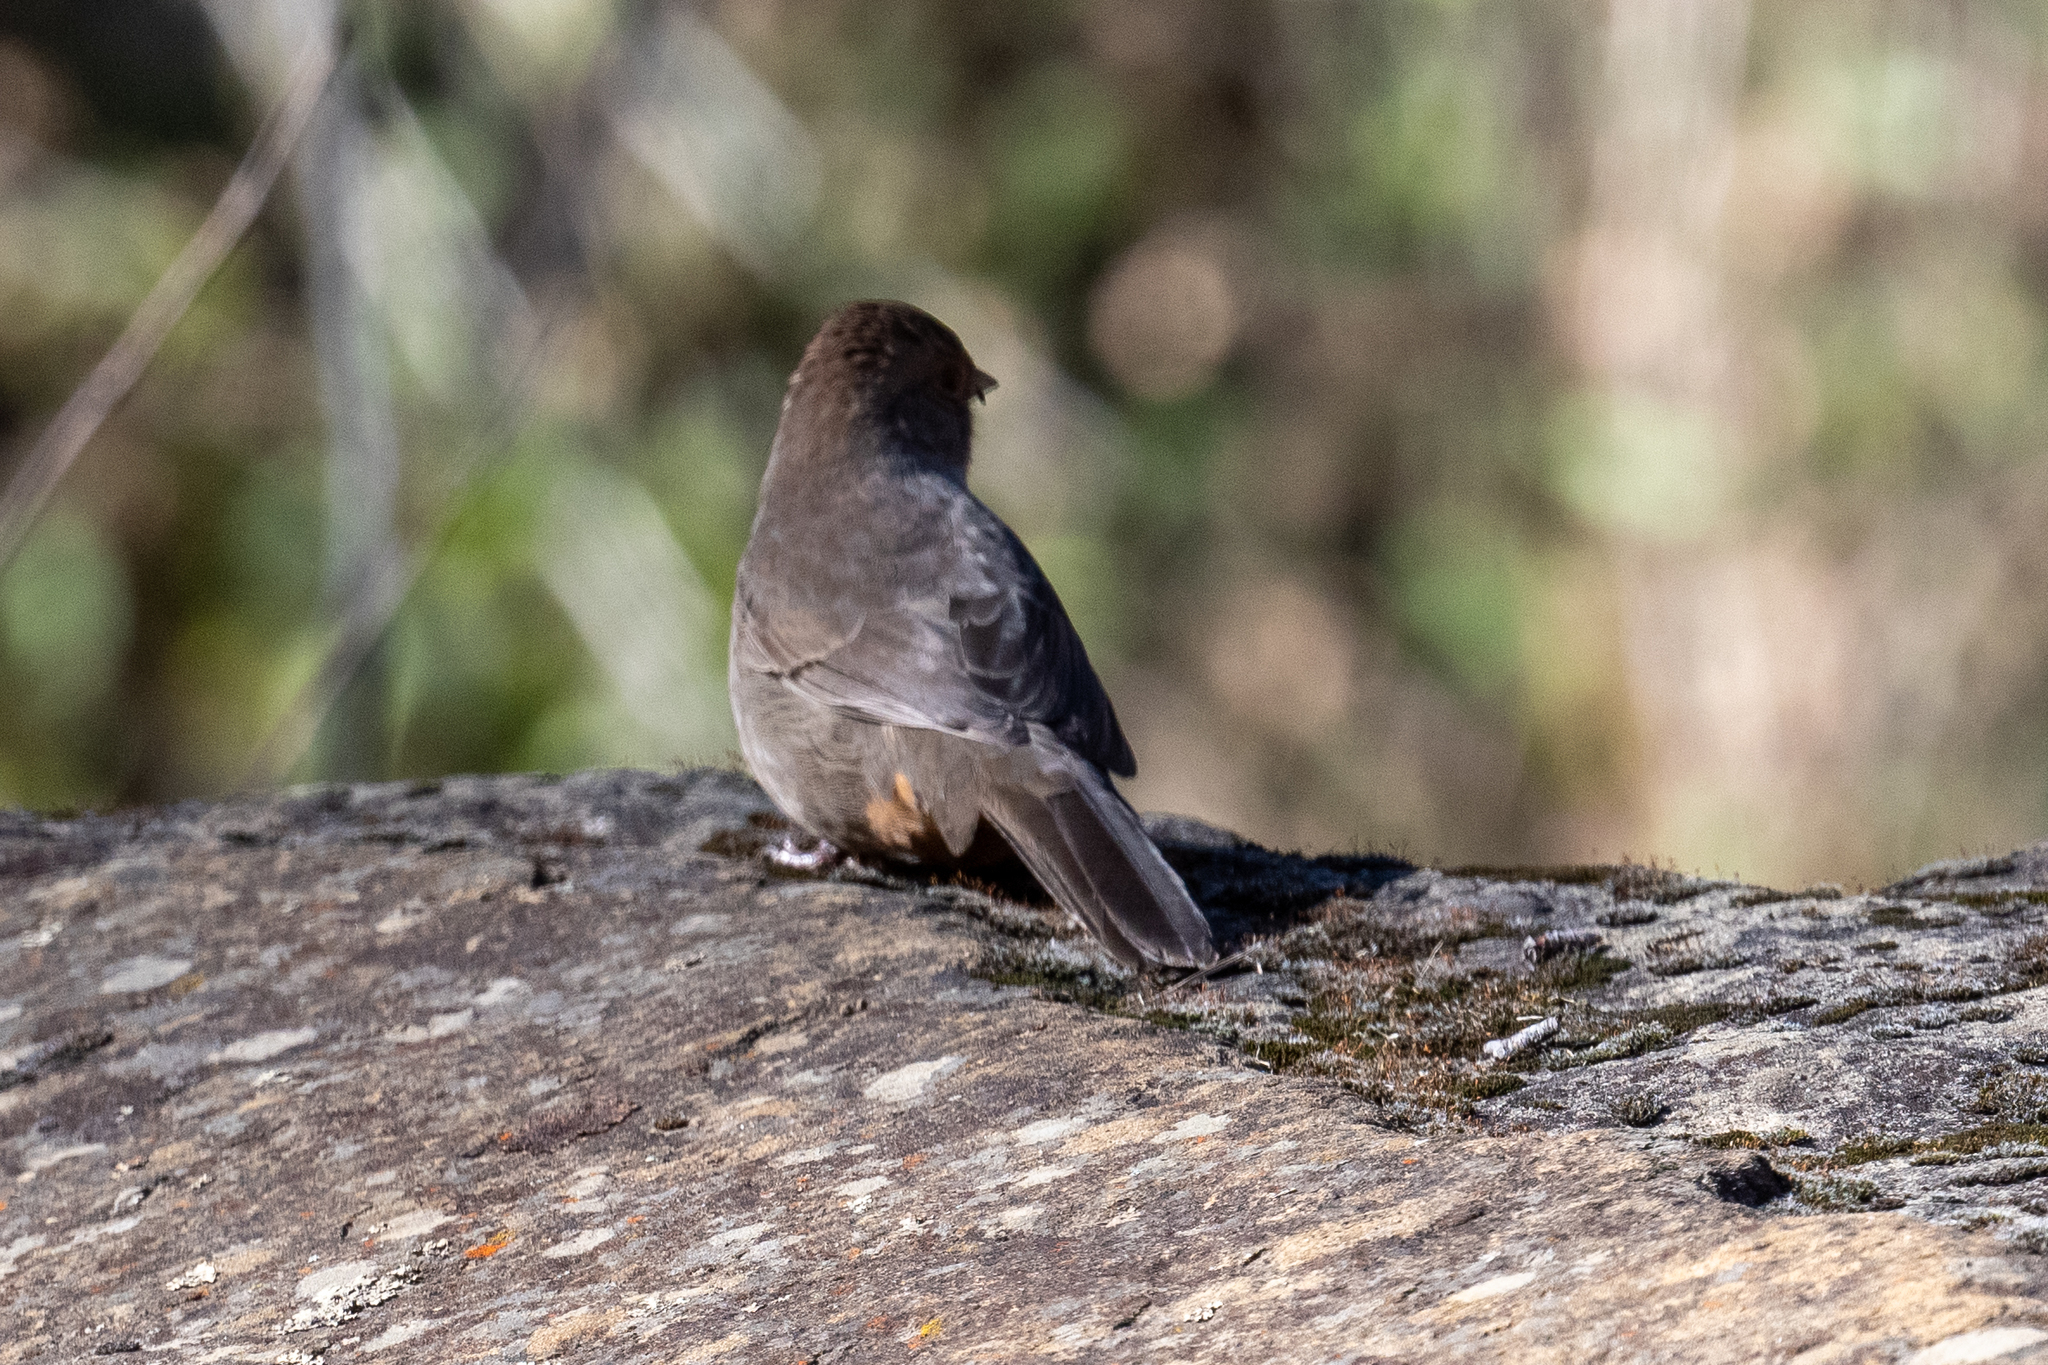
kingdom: Animalia
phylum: Chordata
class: Aves
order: Passeriformes
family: Passerellidae
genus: Melozone
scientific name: Melozone crissalis
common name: California towhee
